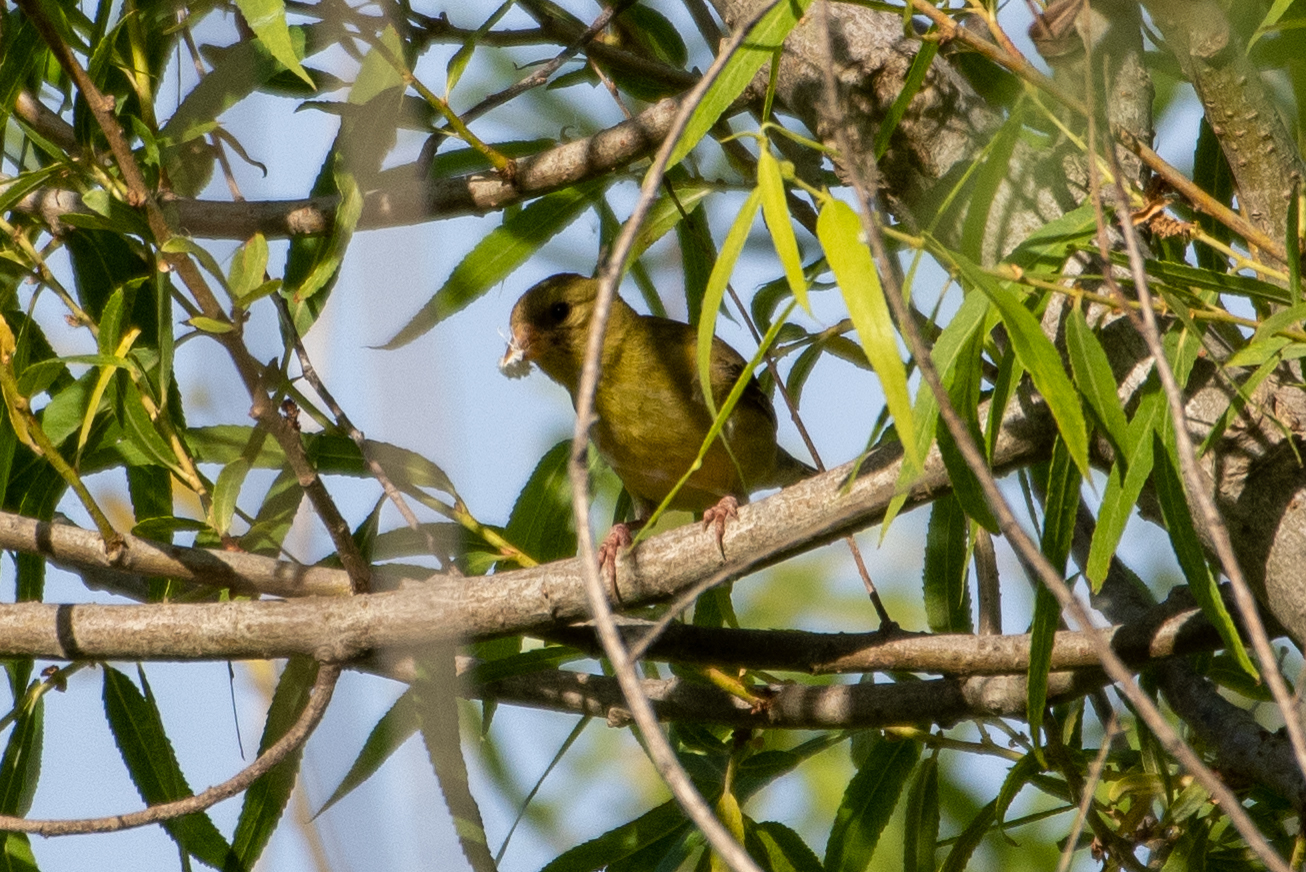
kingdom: Animalia
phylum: Chordata
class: Aves
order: Passeriformes
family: Fringillidae
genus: Spinus
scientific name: Spinus psaltria
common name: Lesser goldfinch
